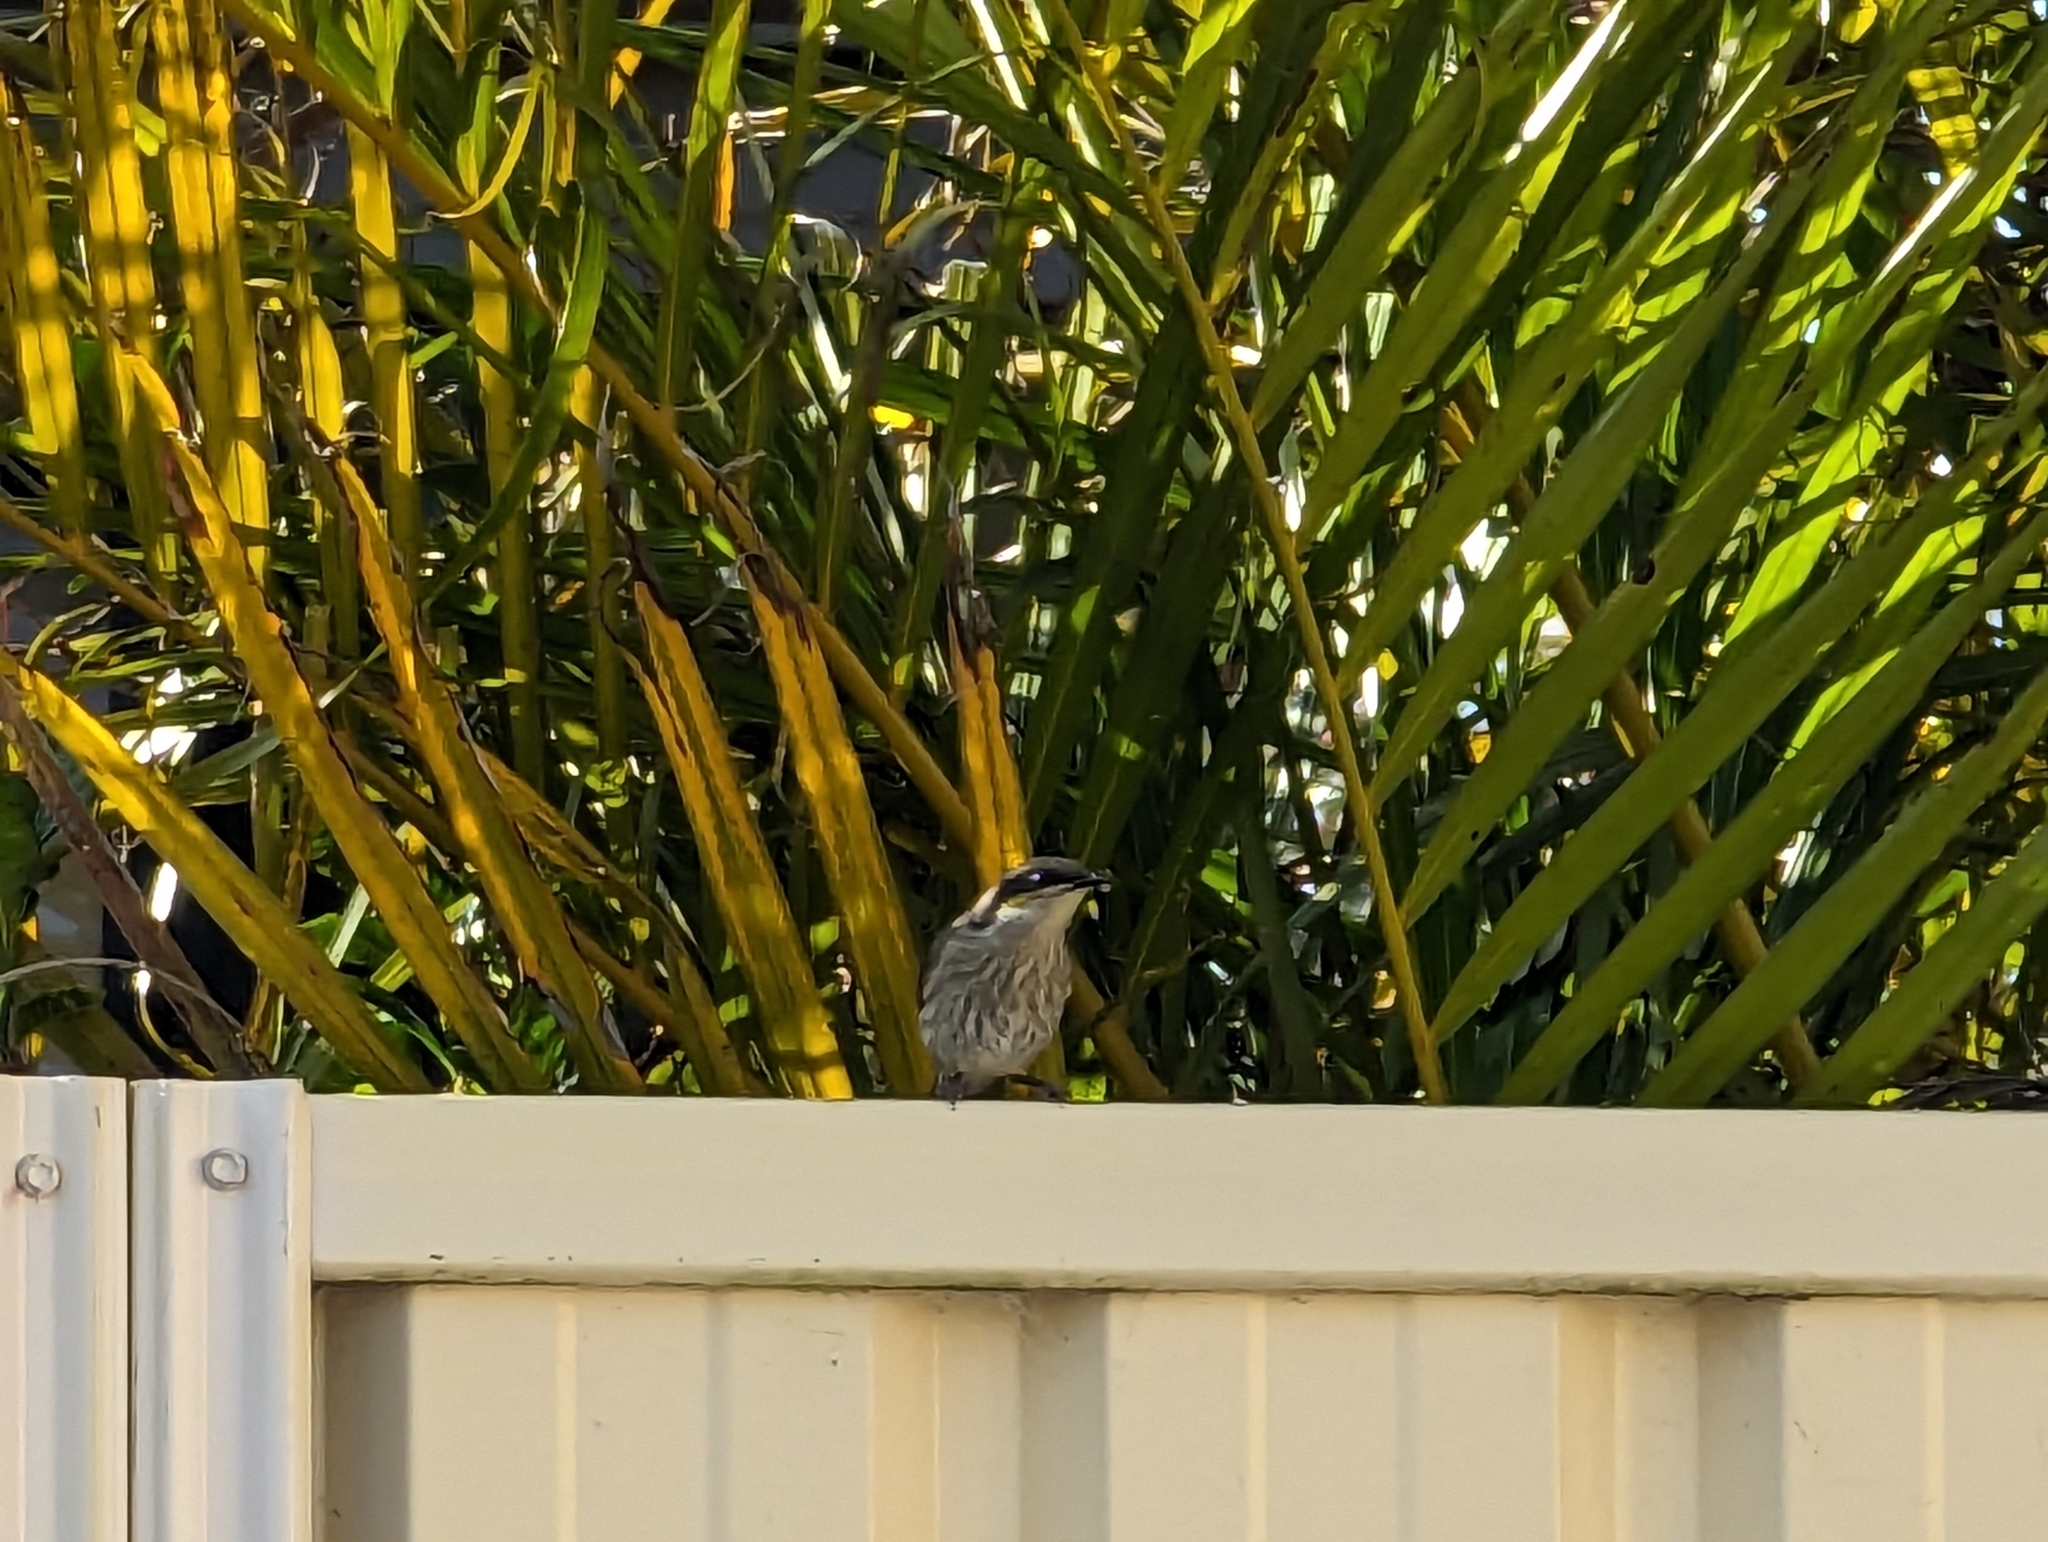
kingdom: Animalia
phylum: Chordata
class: Aves
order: Passeriformes
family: Meliphagidae
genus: Gavicalis
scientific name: Gavicalis virescens
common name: Singing honeyeater
